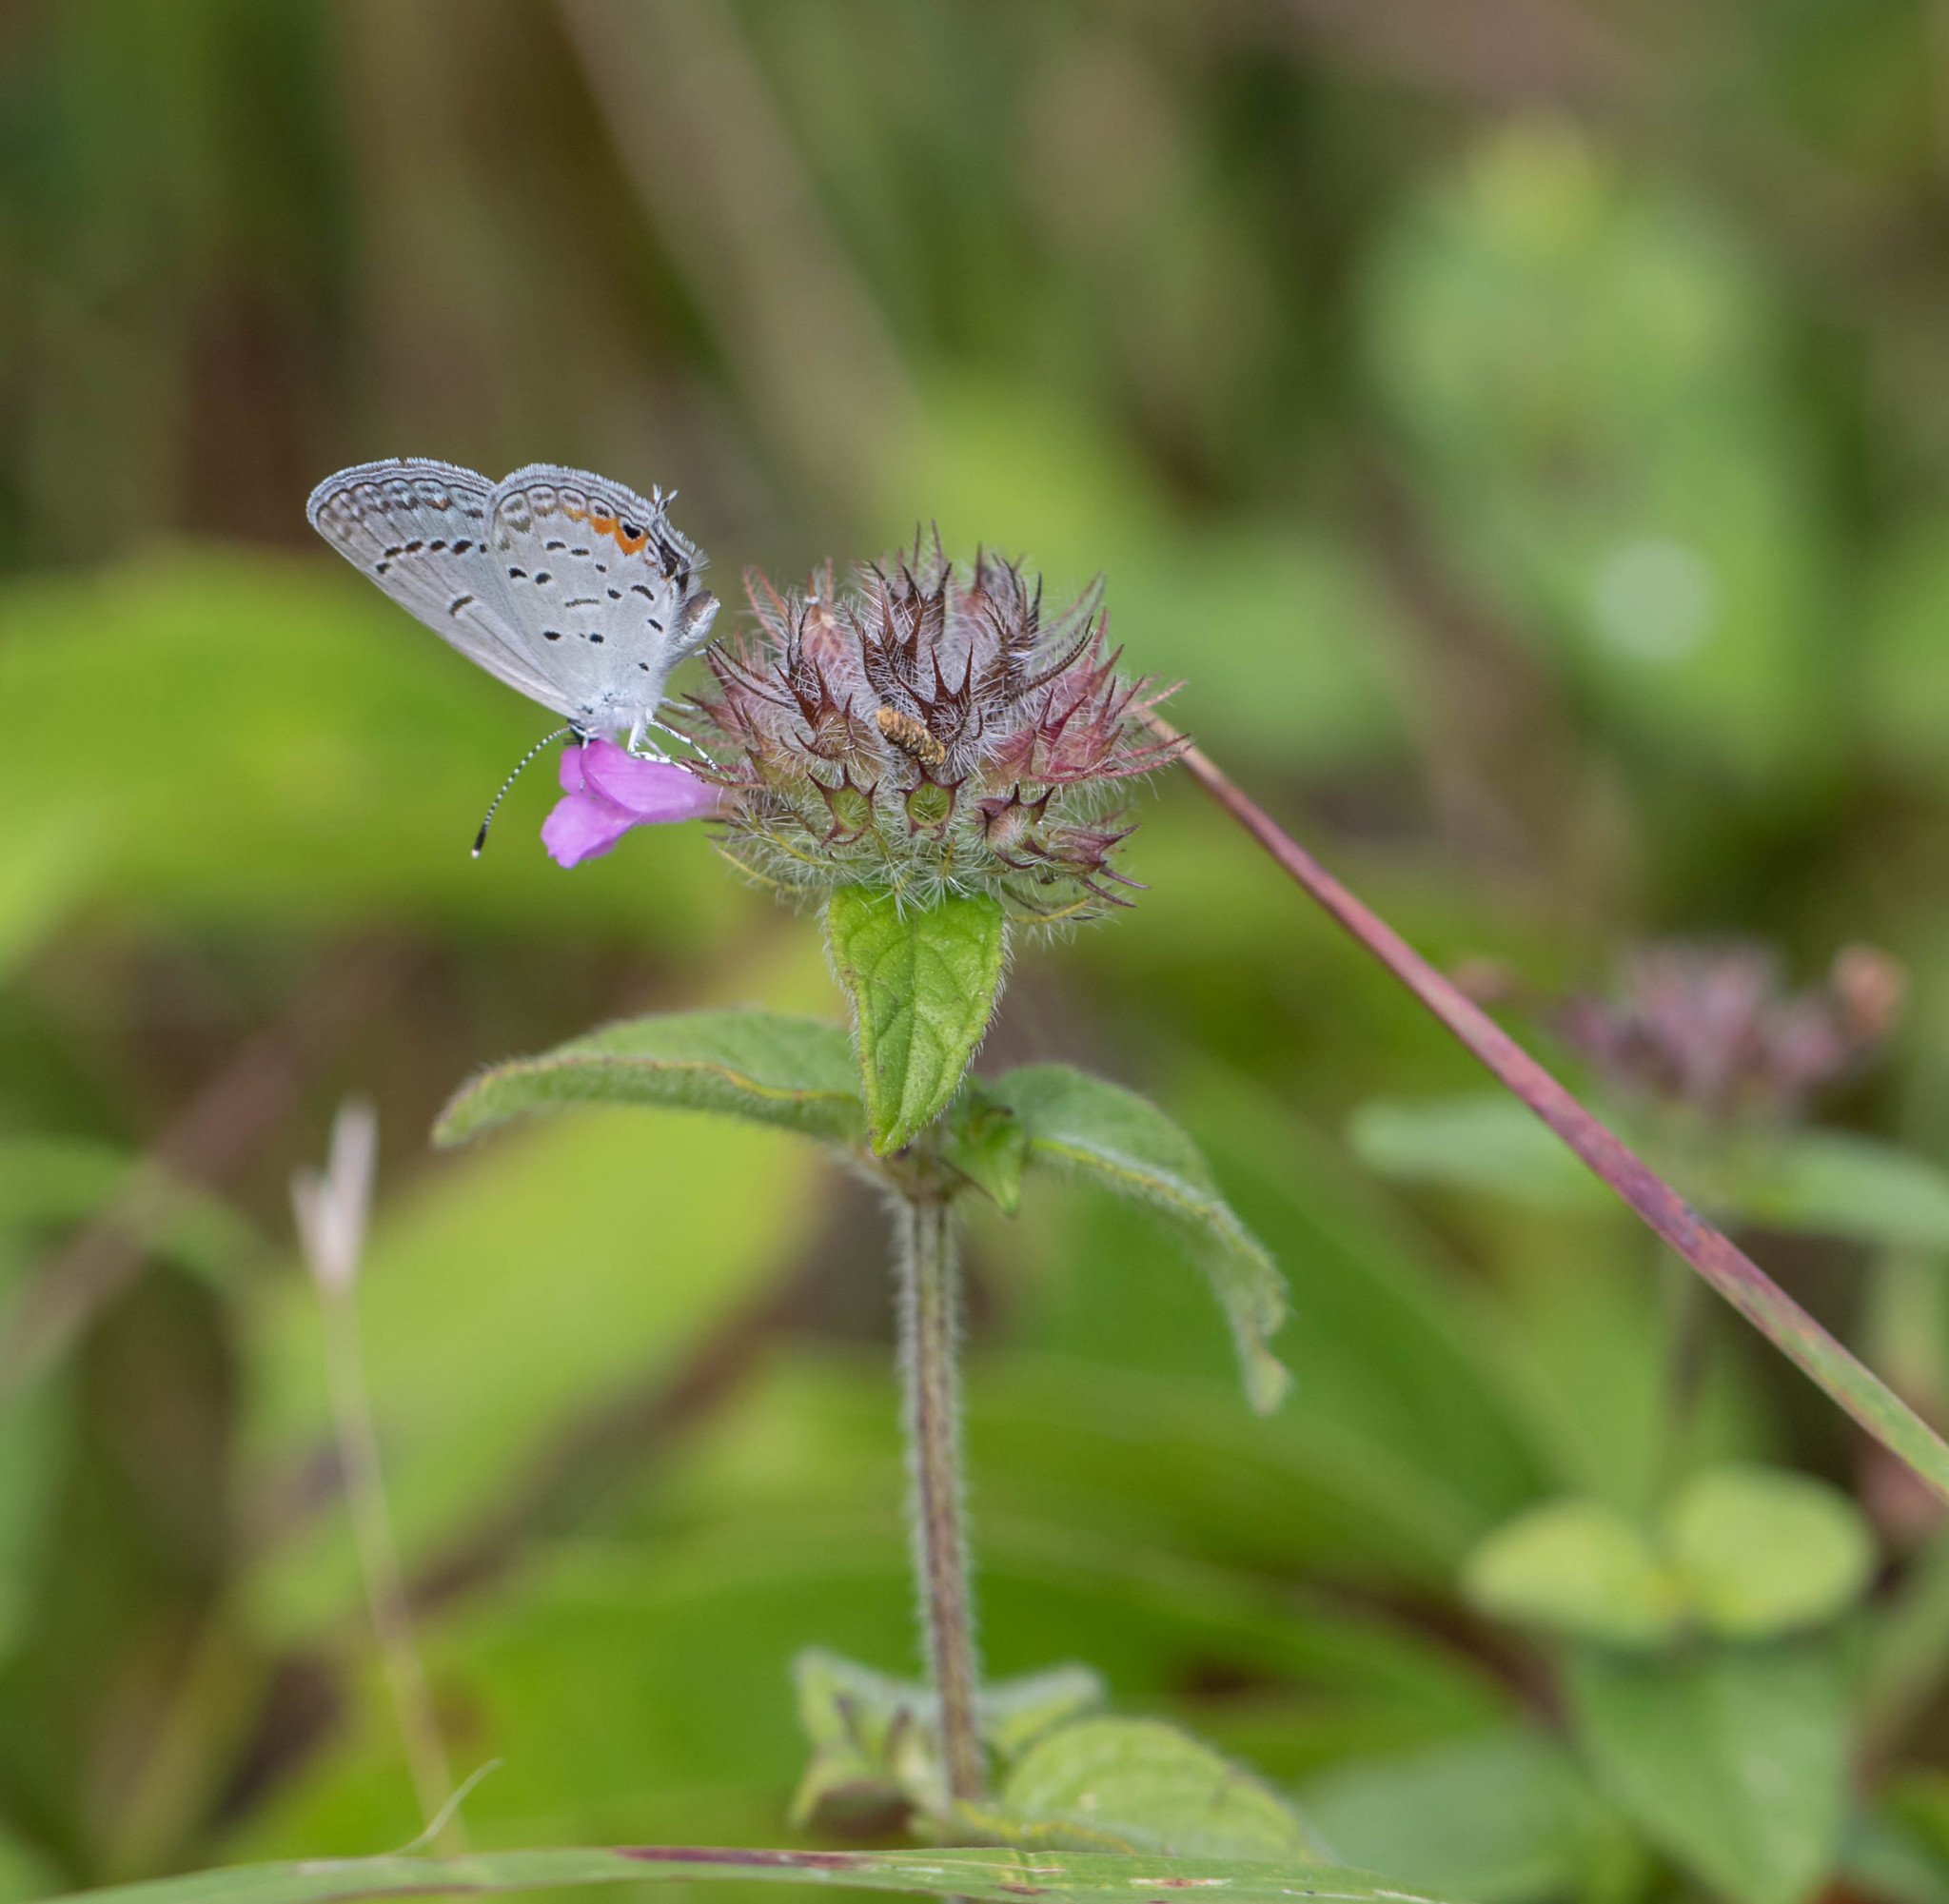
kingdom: Animalia
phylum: Arthropoda
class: Insecta
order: Lepidoptera
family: Lycaenidae
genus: Elkalyce
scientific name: Elkalyce comyntas
